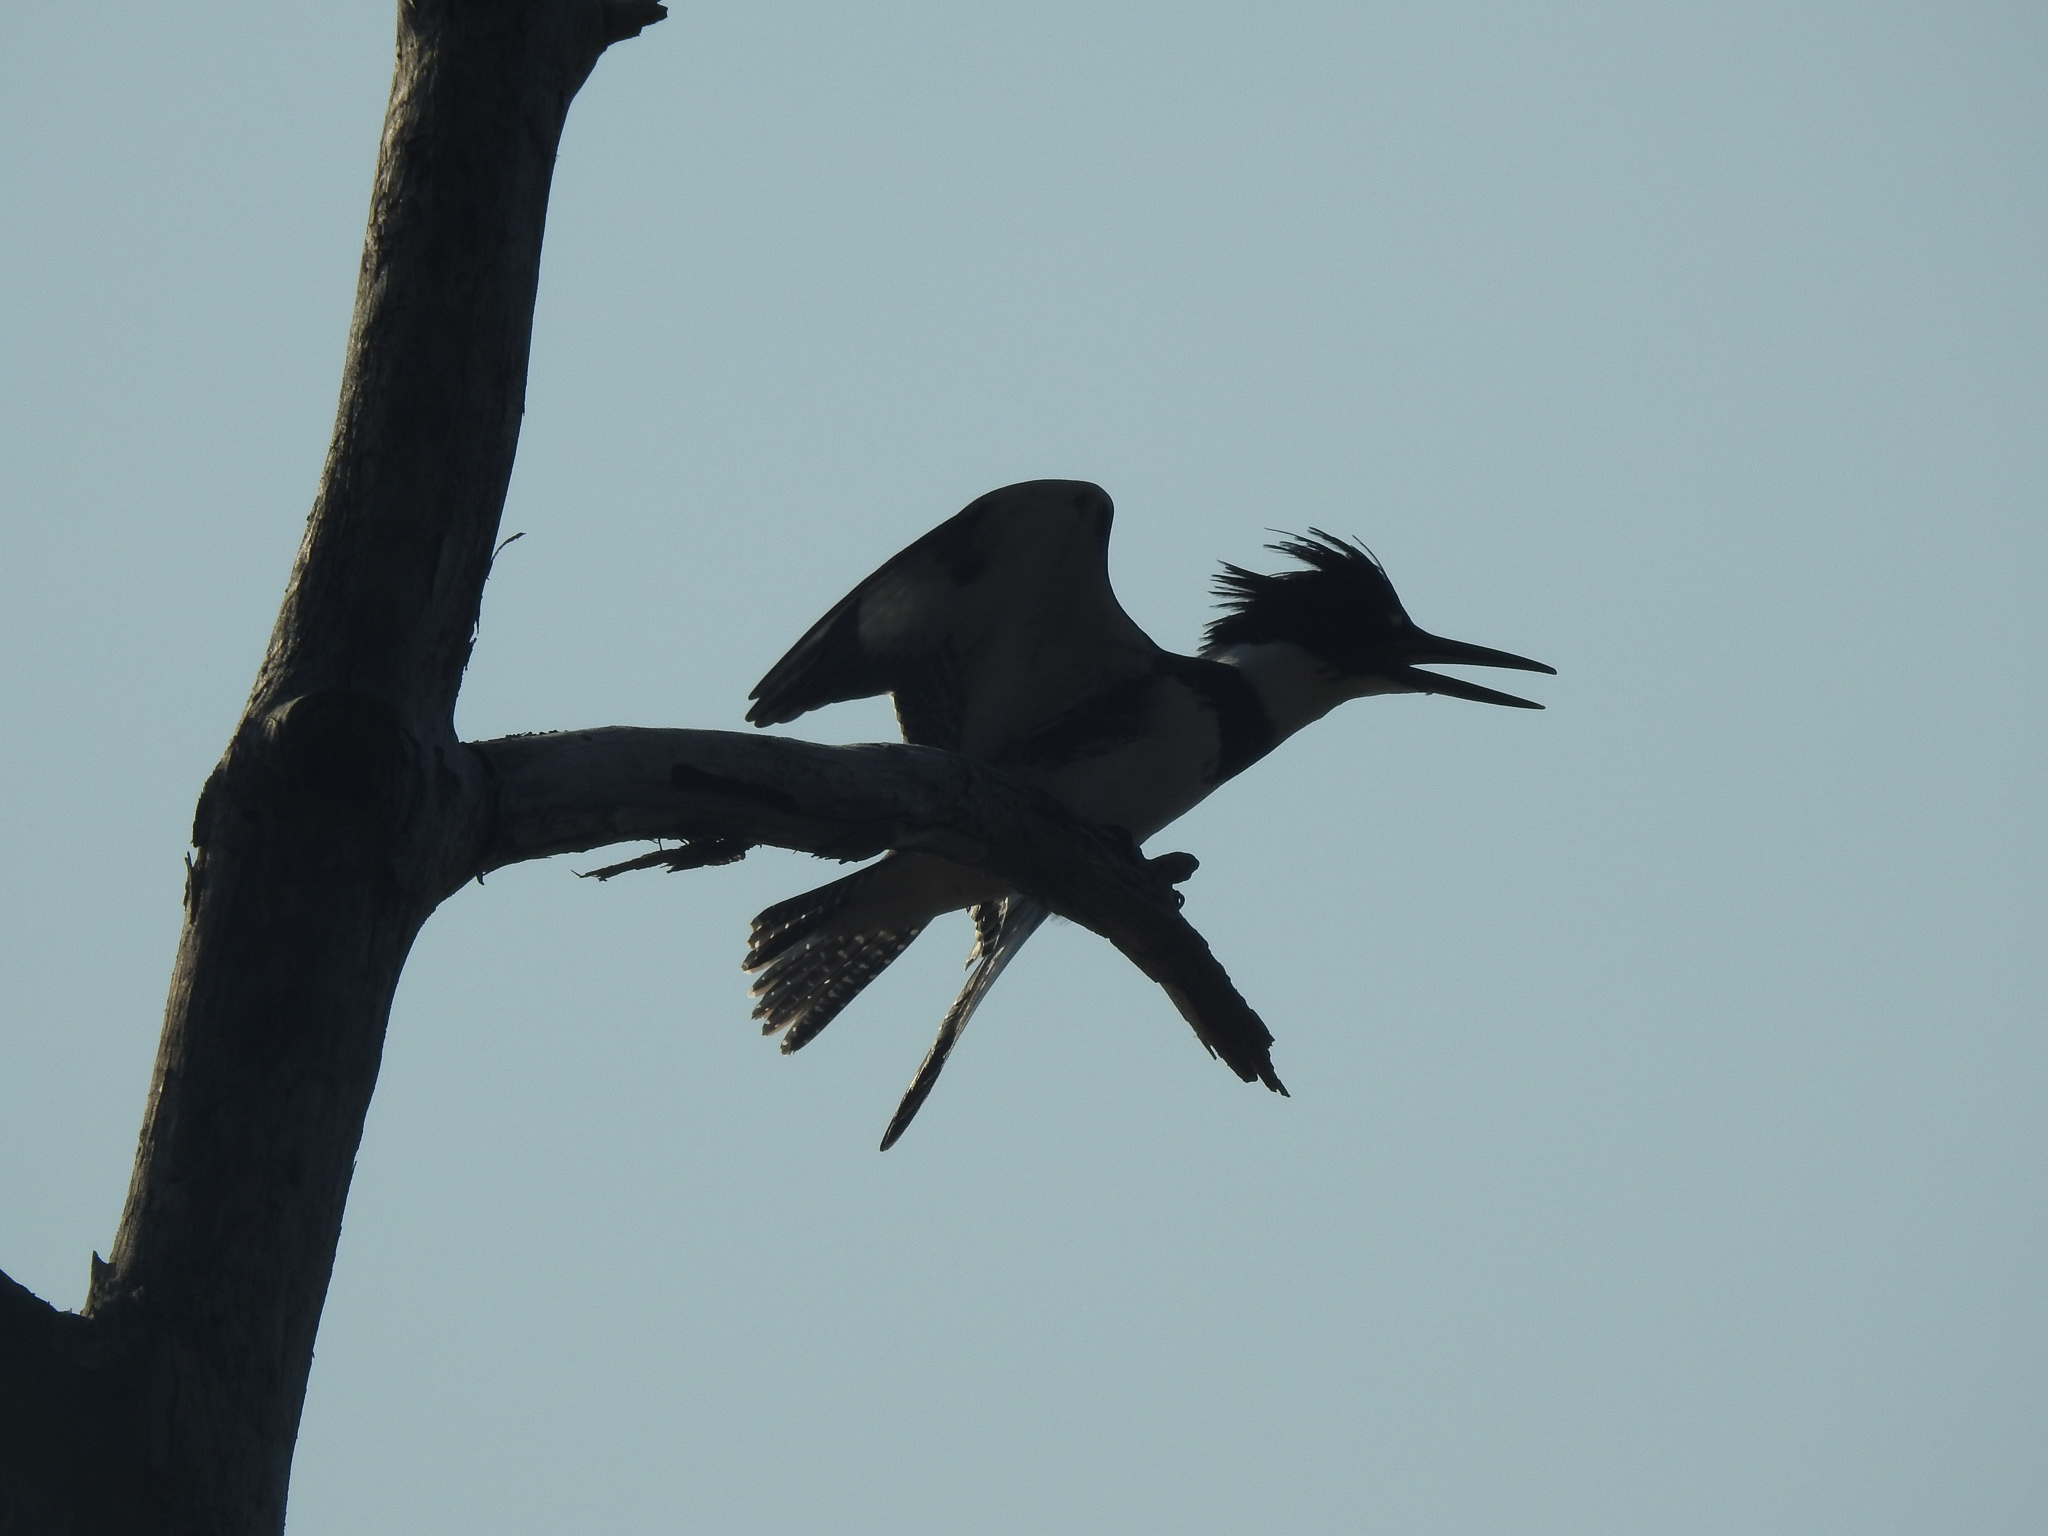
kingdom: Animalia
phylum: Chordata
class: Aves
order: Coraciiformes
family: Alcedinidae
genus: Megaceryle
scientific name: Megaceryle alcyon
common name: Belted kingfisher
